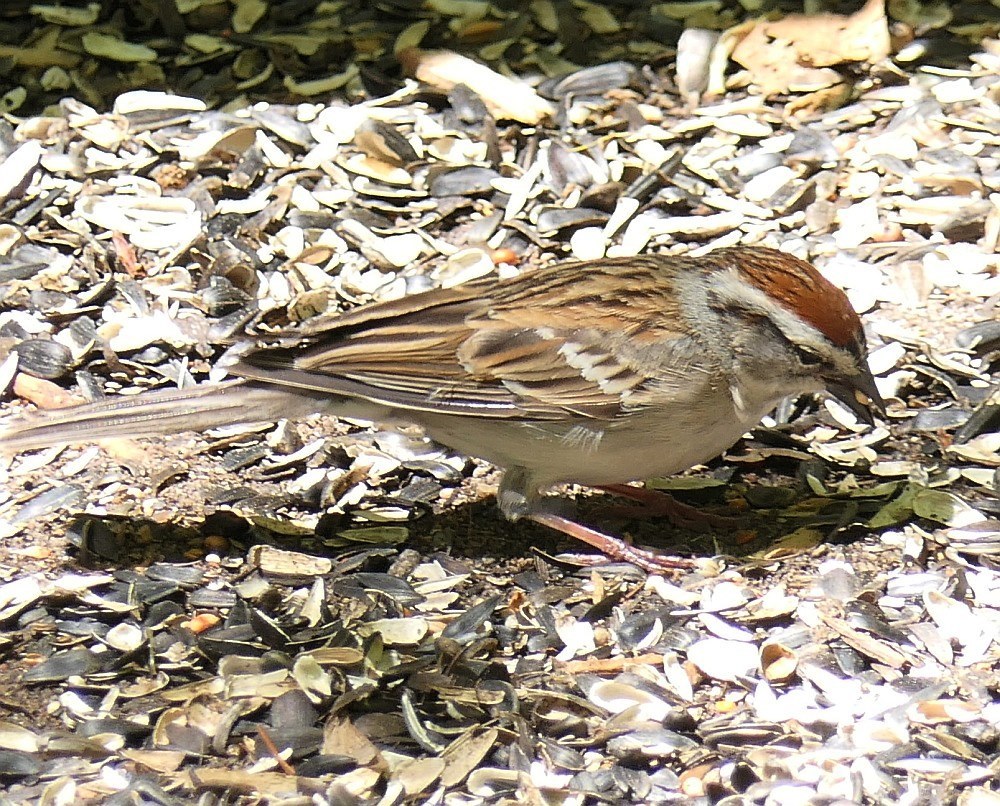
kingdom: Animalia
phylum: Chordata
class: Aves
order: Passeriformes
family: Passerellidae
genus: Spizella
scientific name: Spizella passerina
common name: Chipping sparrow
